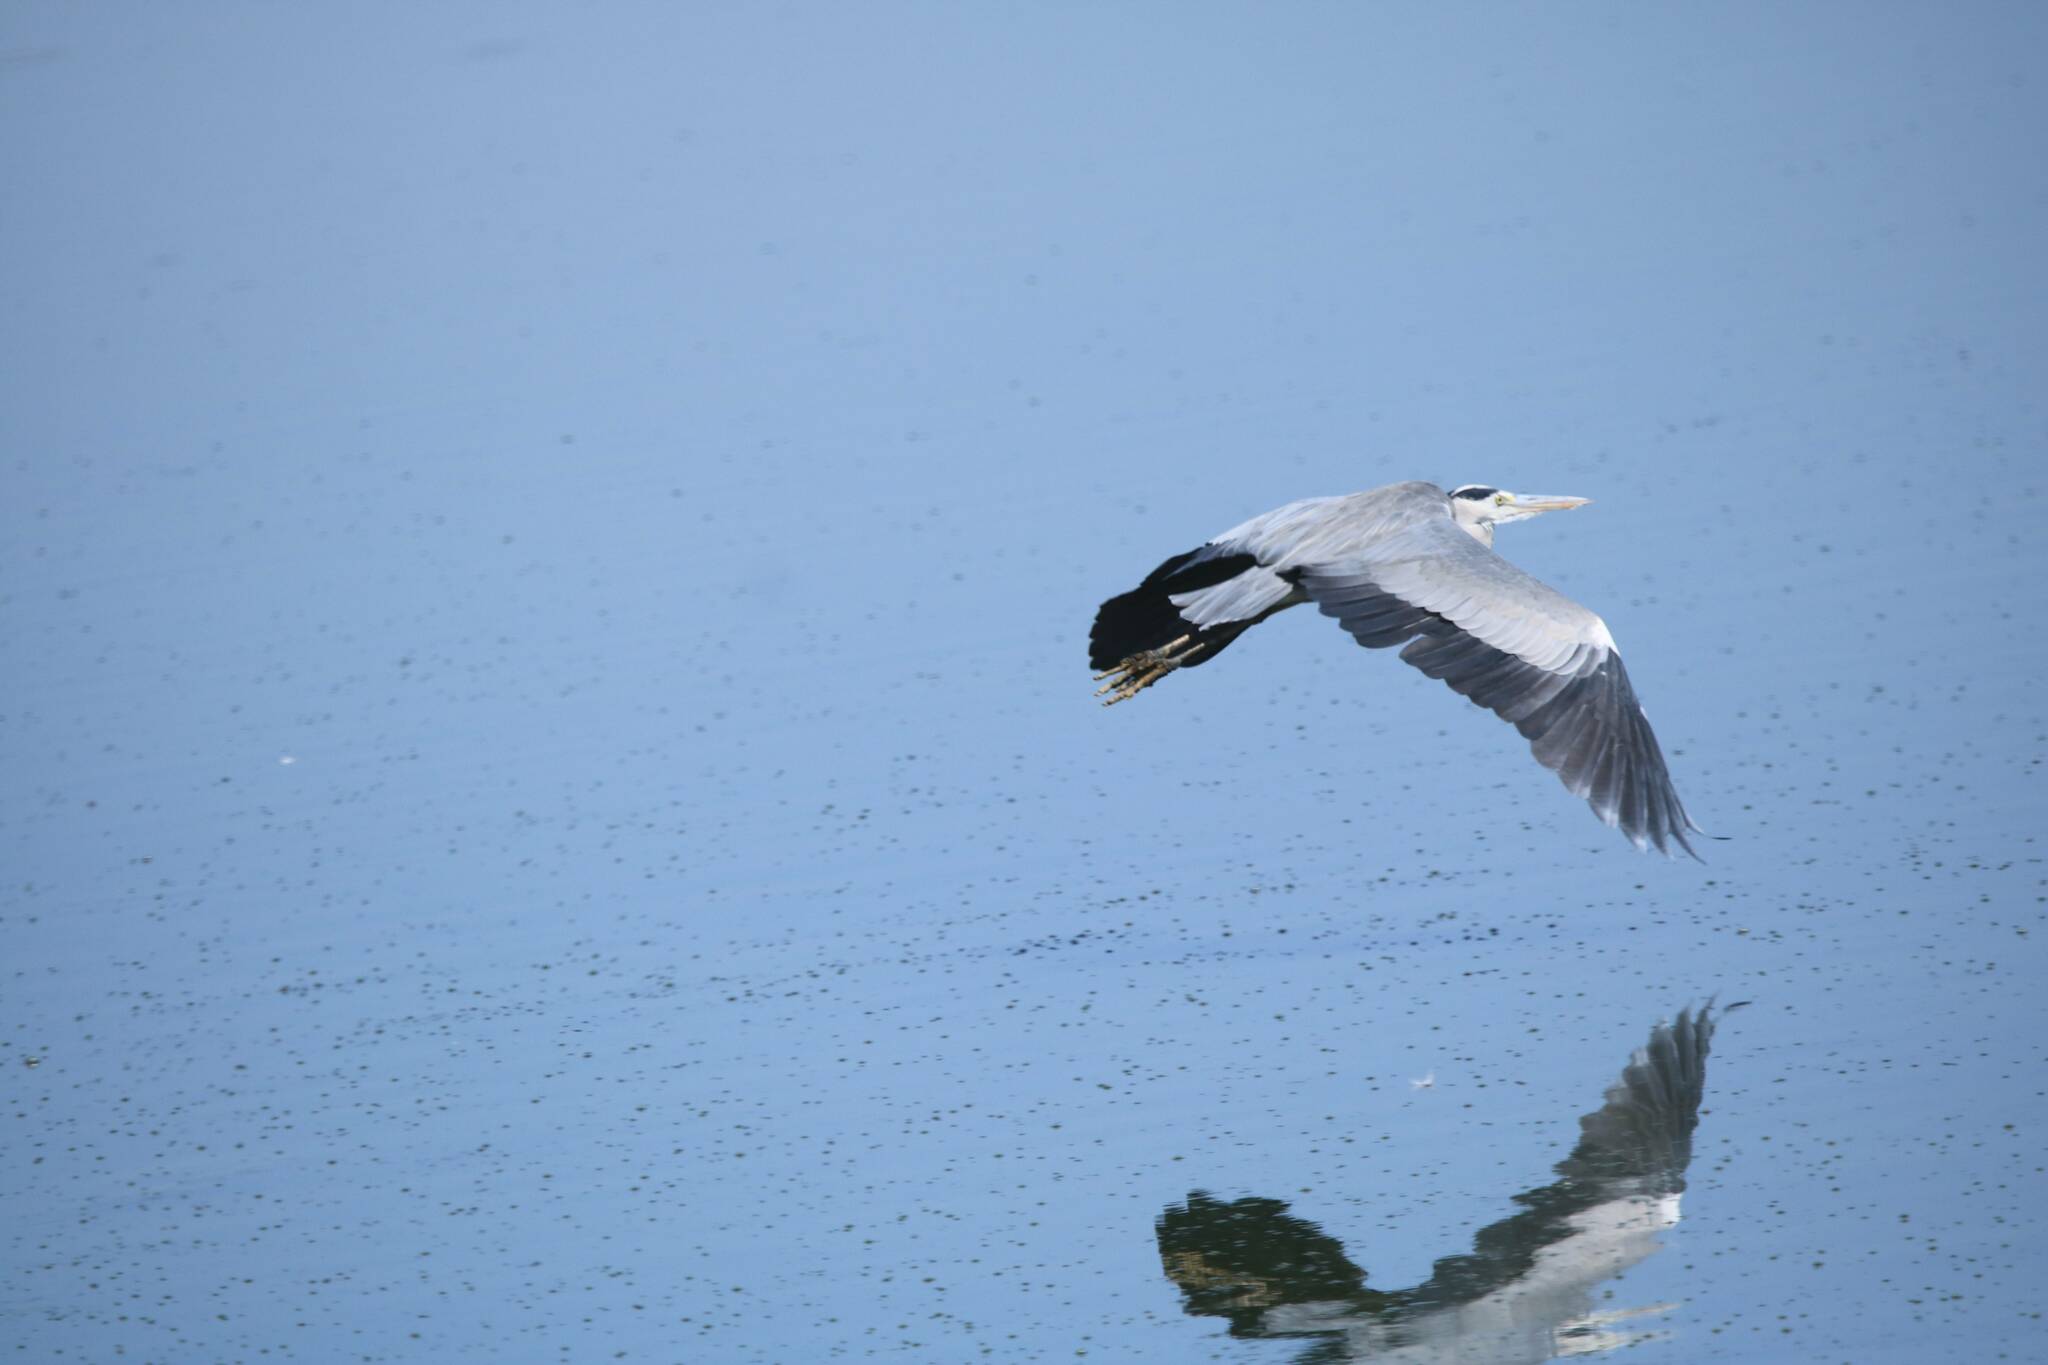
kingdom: Animalia
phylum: Chordata
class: Aves
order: Pelecaniformes
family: Ardeidae
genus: Ardea
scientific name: Ardea cinerea
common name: Grey heron
